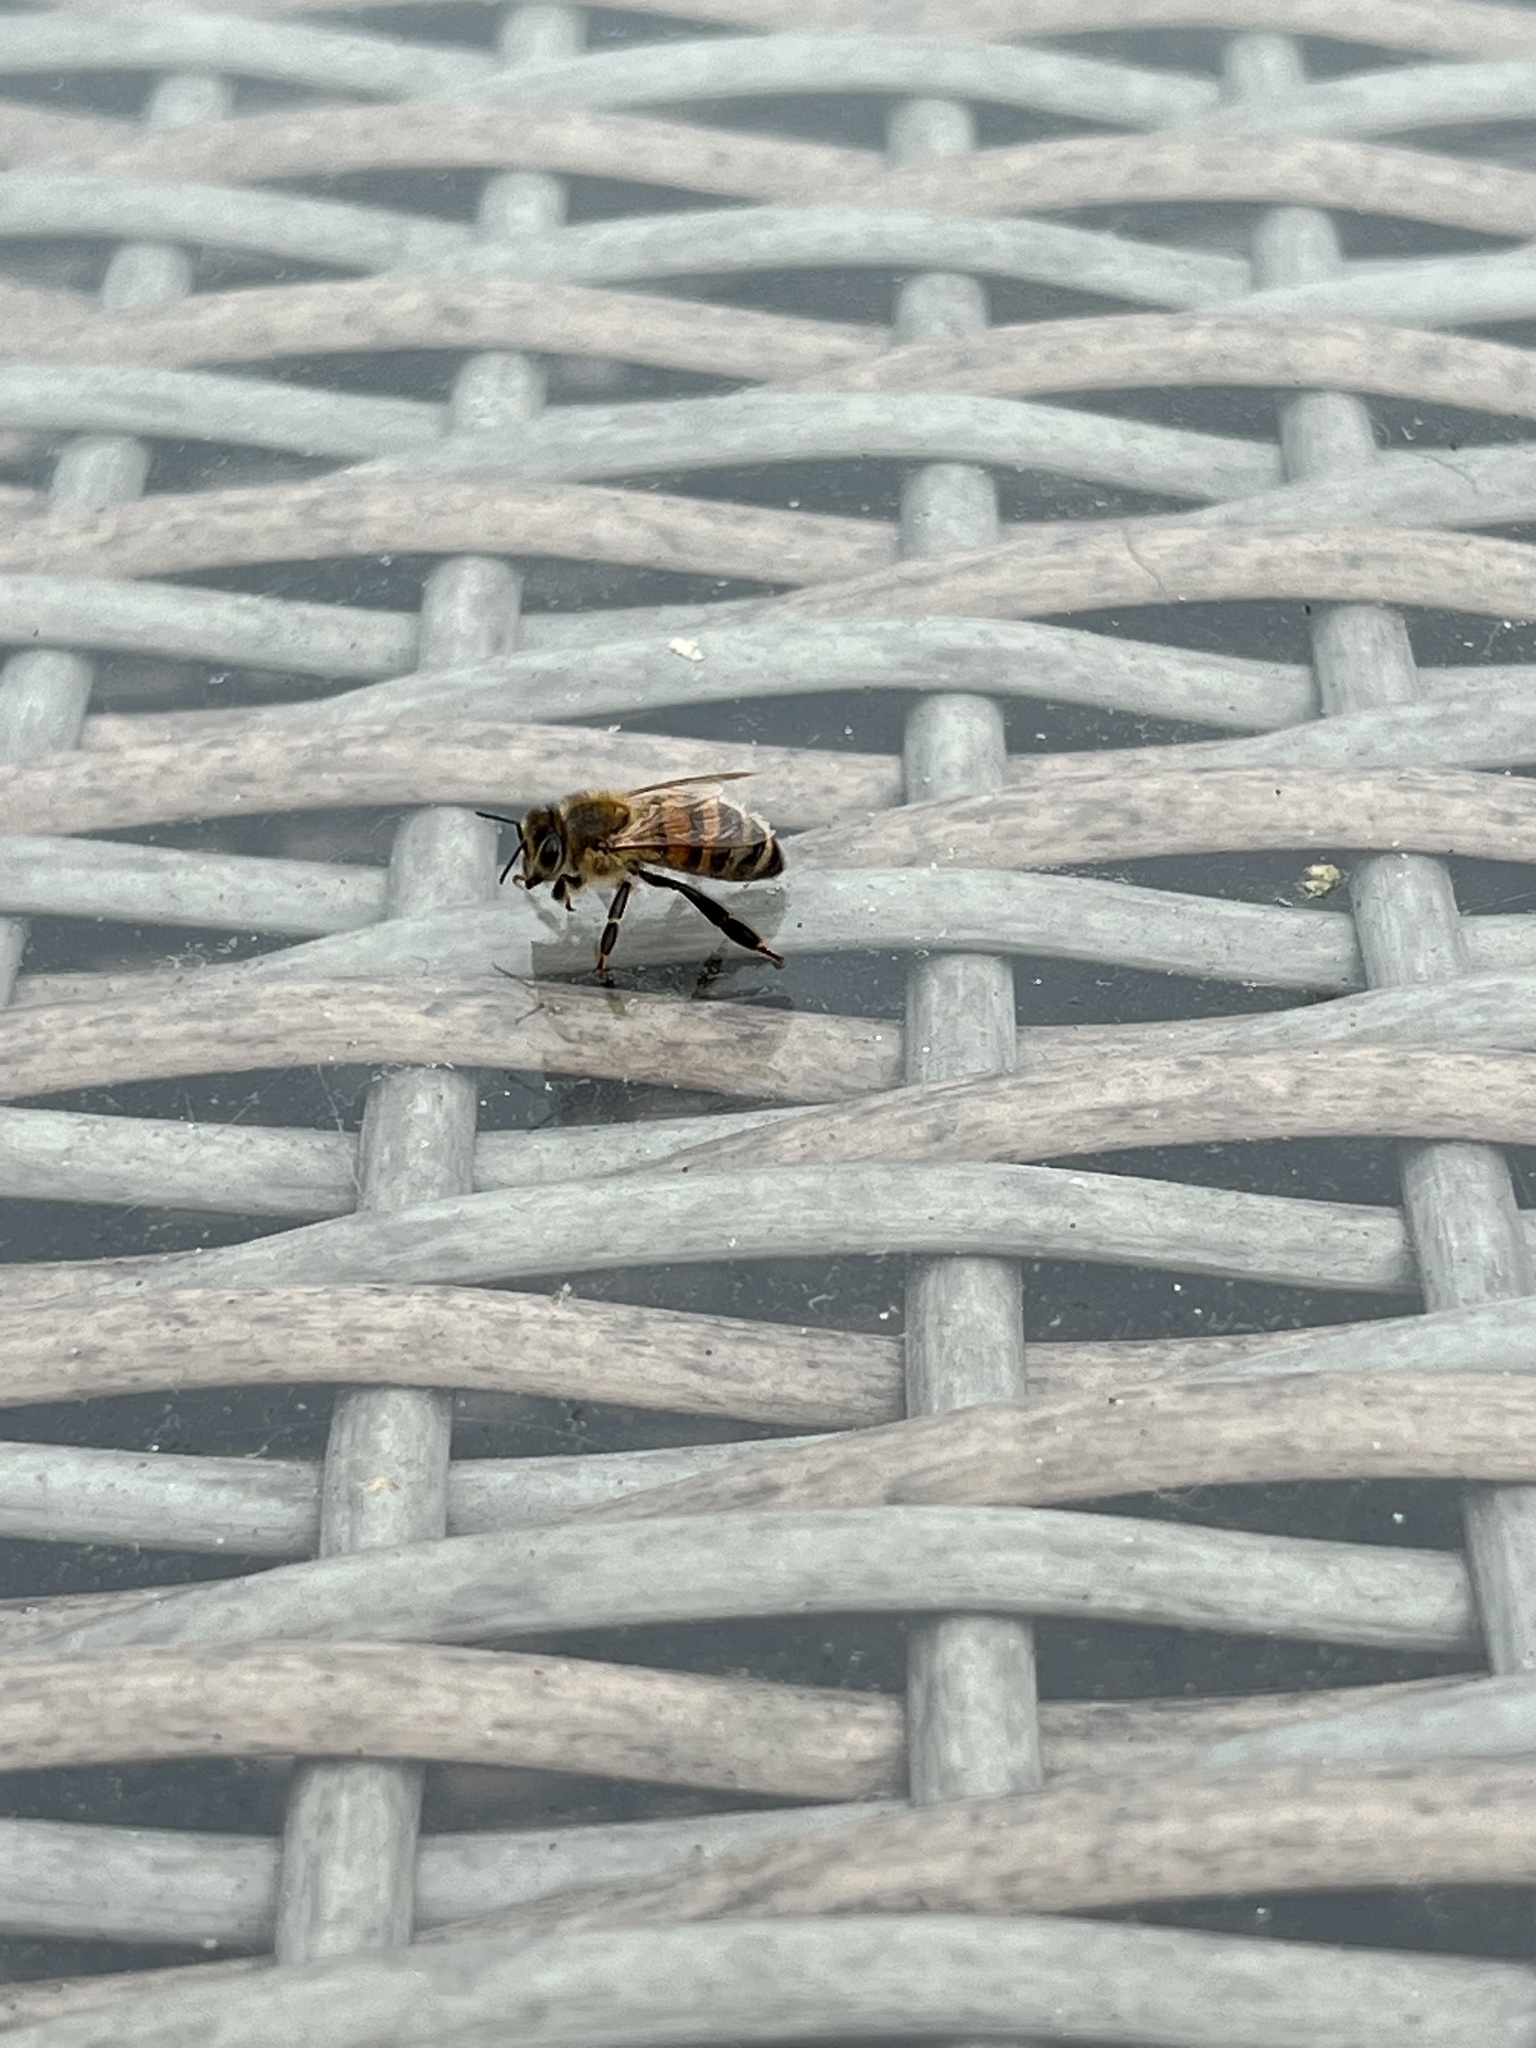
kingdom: Animalia
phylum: Arthropoda
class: Insecta
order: Hymenoptera
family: Apidae
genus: Apis
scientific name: Apis mellifera
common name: Honey bee
